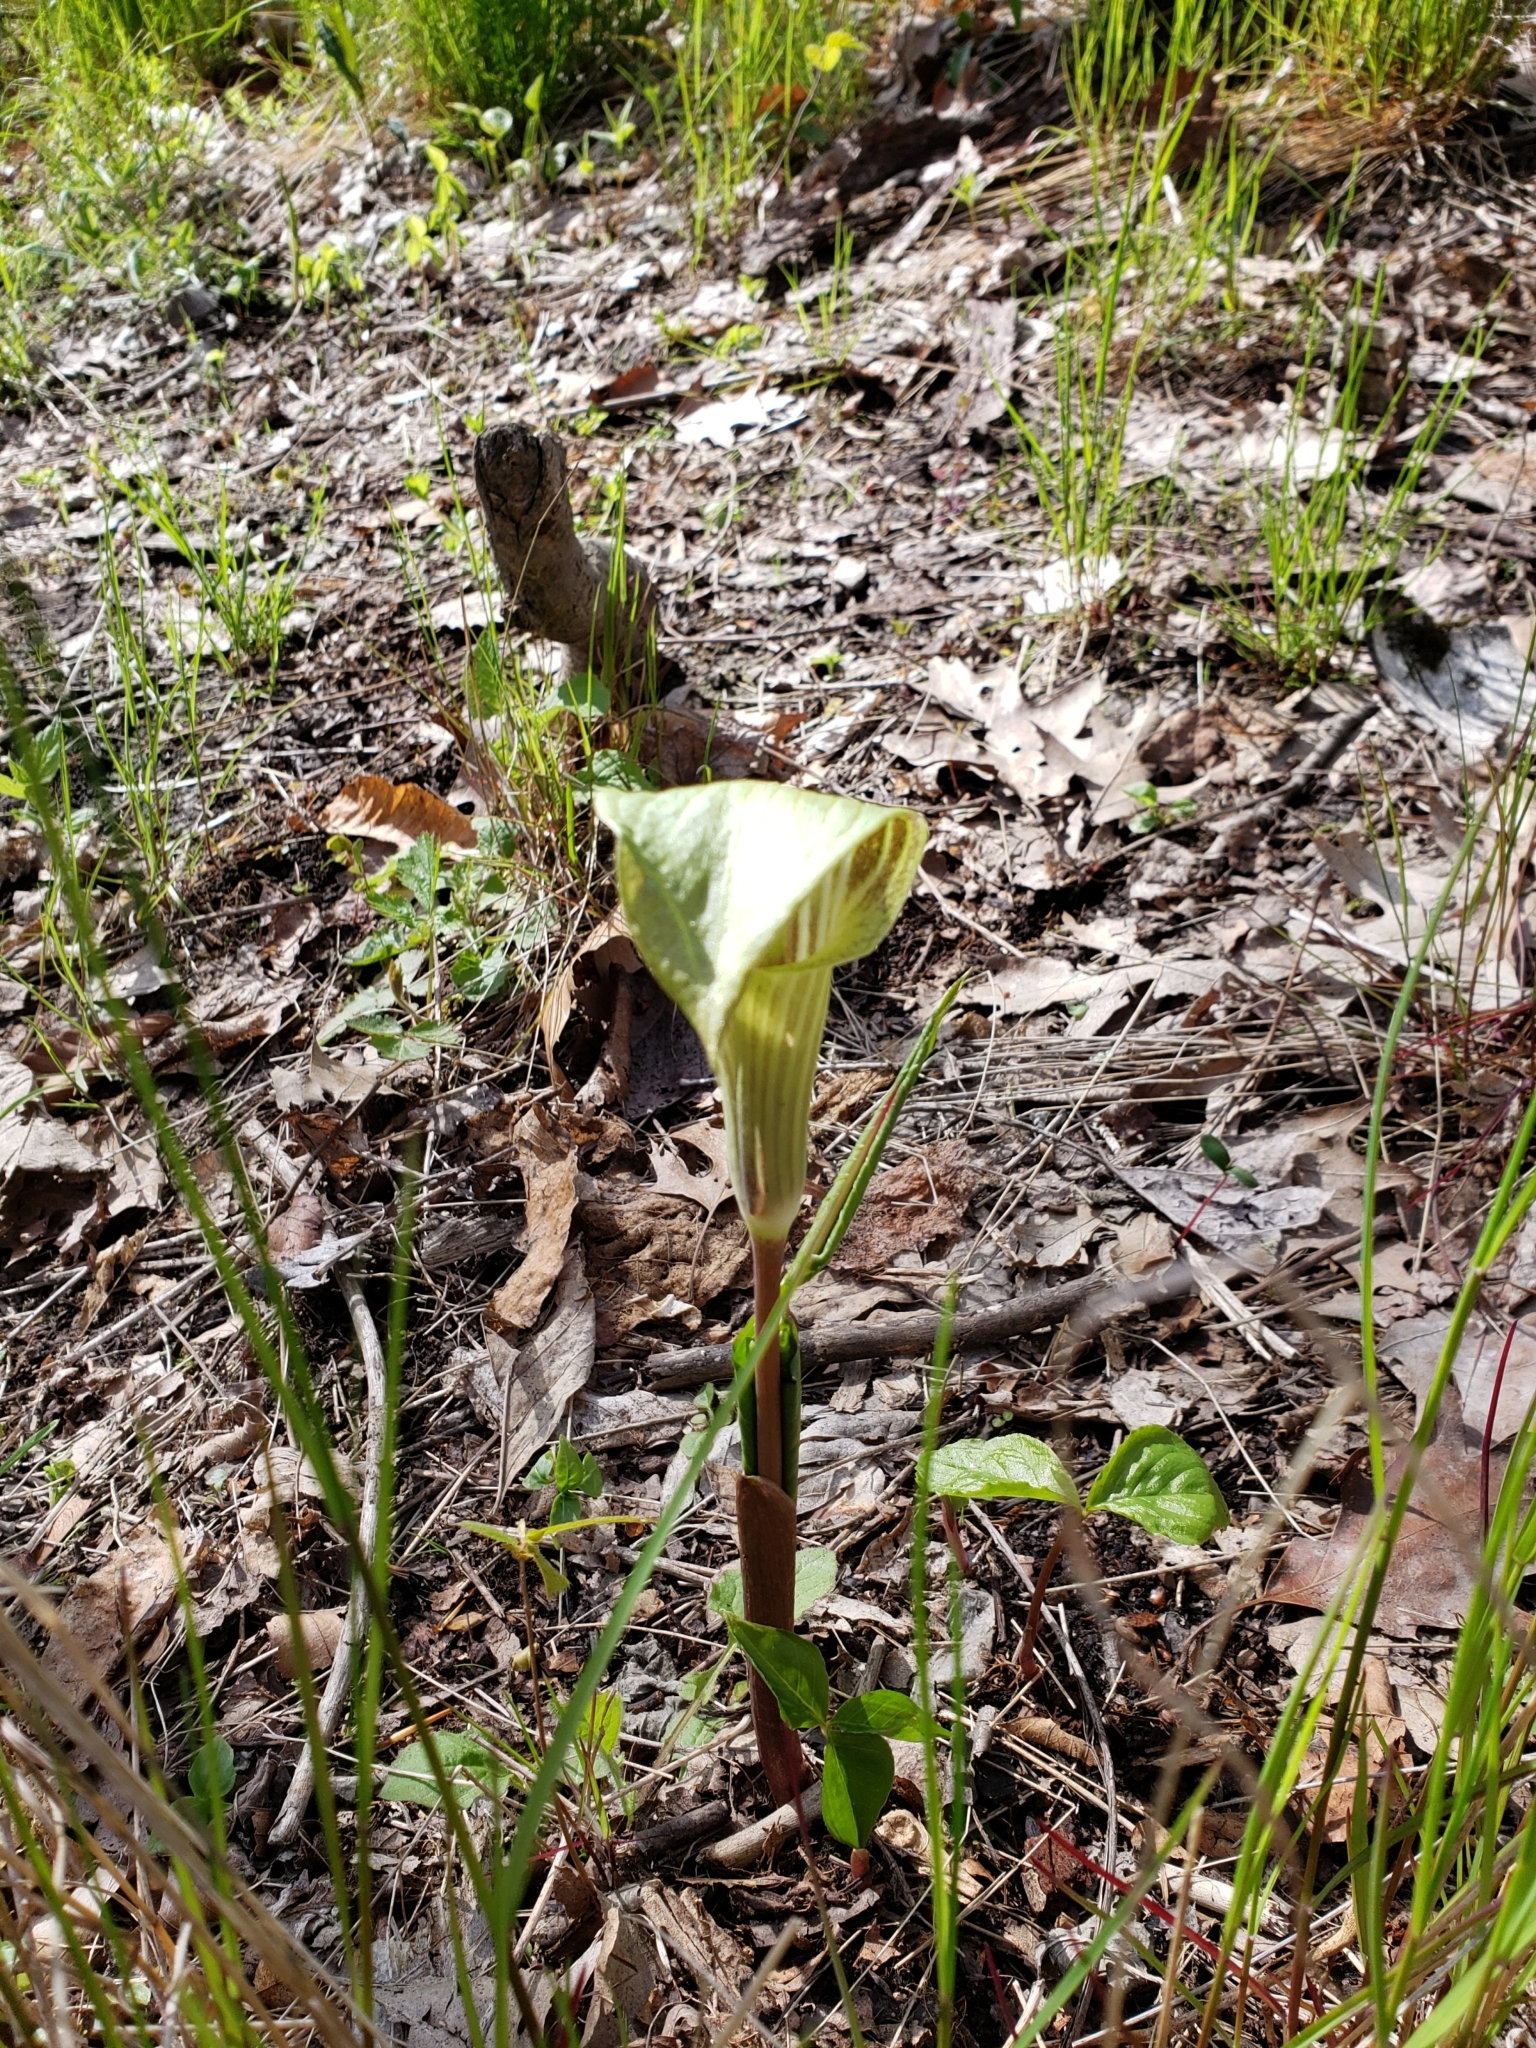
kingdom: Plantae
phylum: Tracheophyta
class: Liliopsida
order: Alismatales
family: Araceae
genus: Arisaema
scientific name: Arisaema triphyllum
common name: Jack-in-the-pulpit
